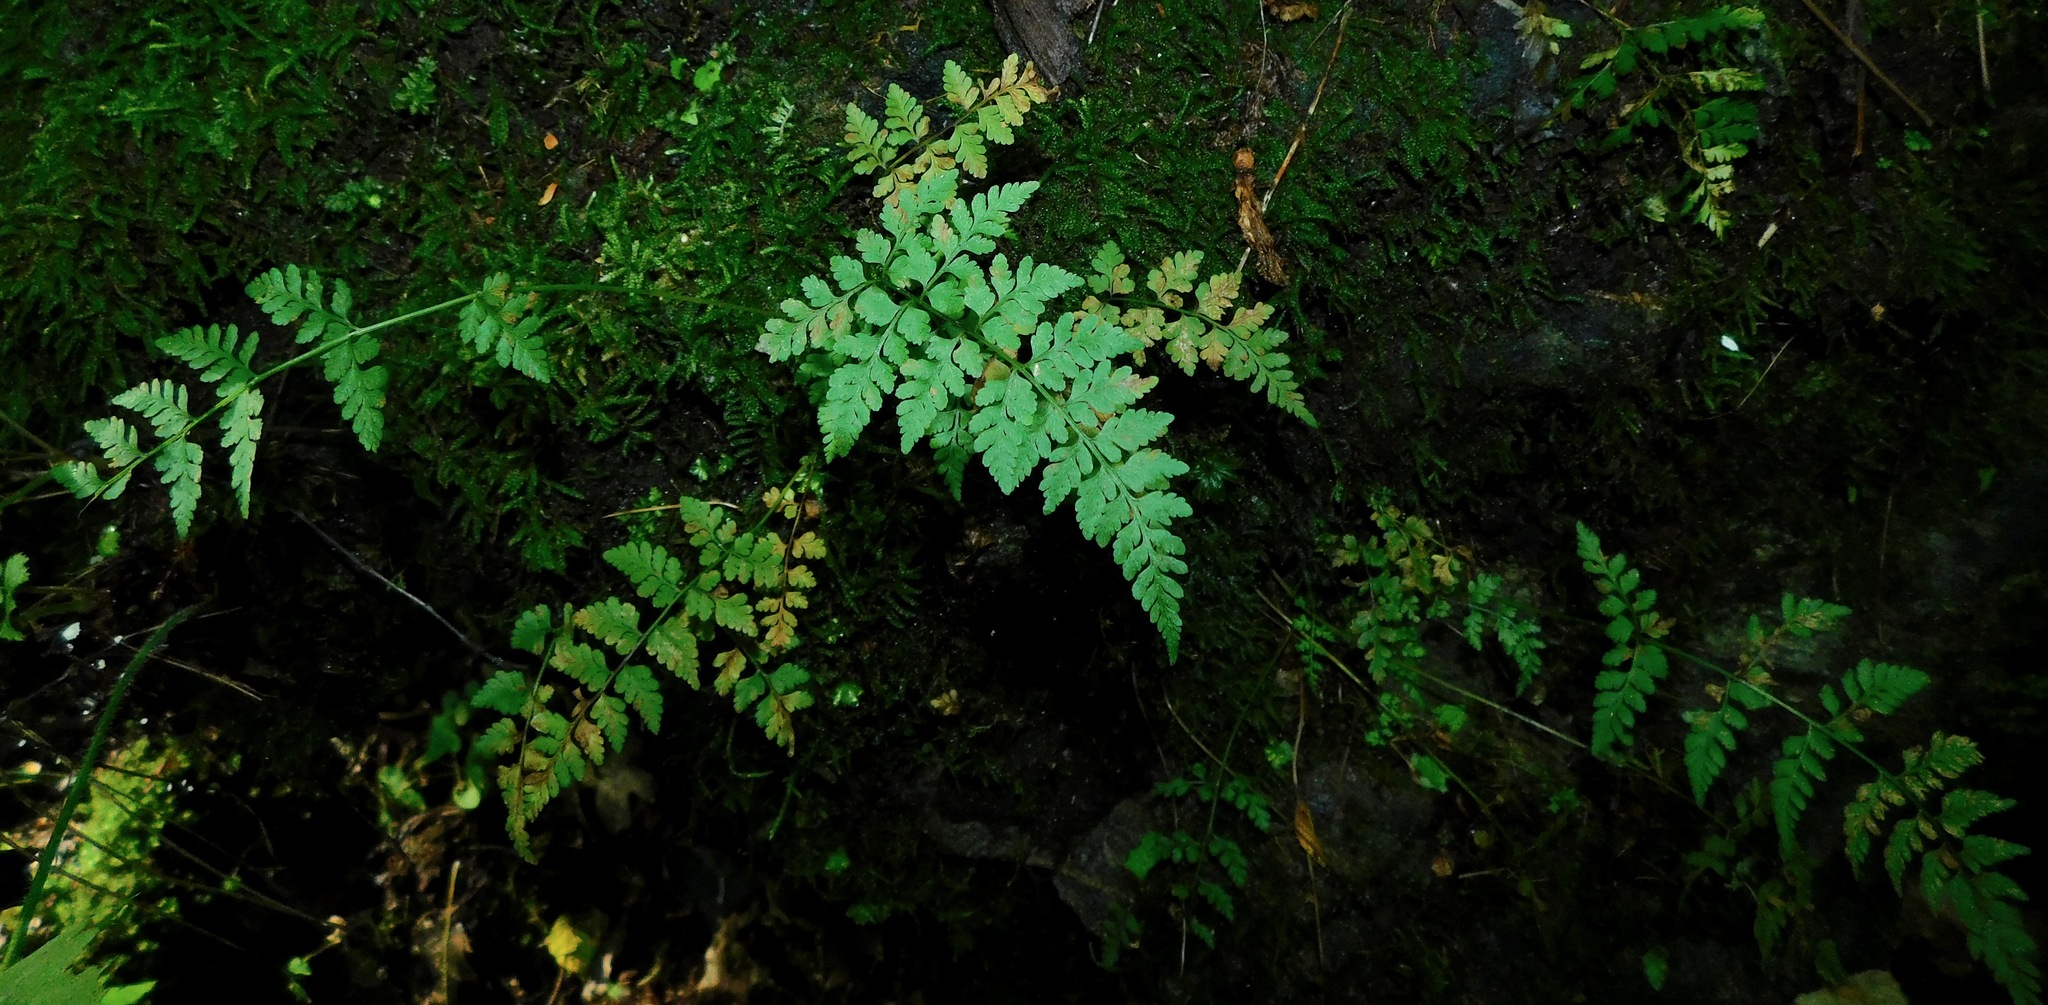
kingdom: Plantae
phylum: Tracheophyta
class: Polypodiopsida
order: Polypodiales
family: Cystopteridaceae
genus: Cystopteris
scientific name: Cystopteris protrusa
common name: Lowland brittle fern
